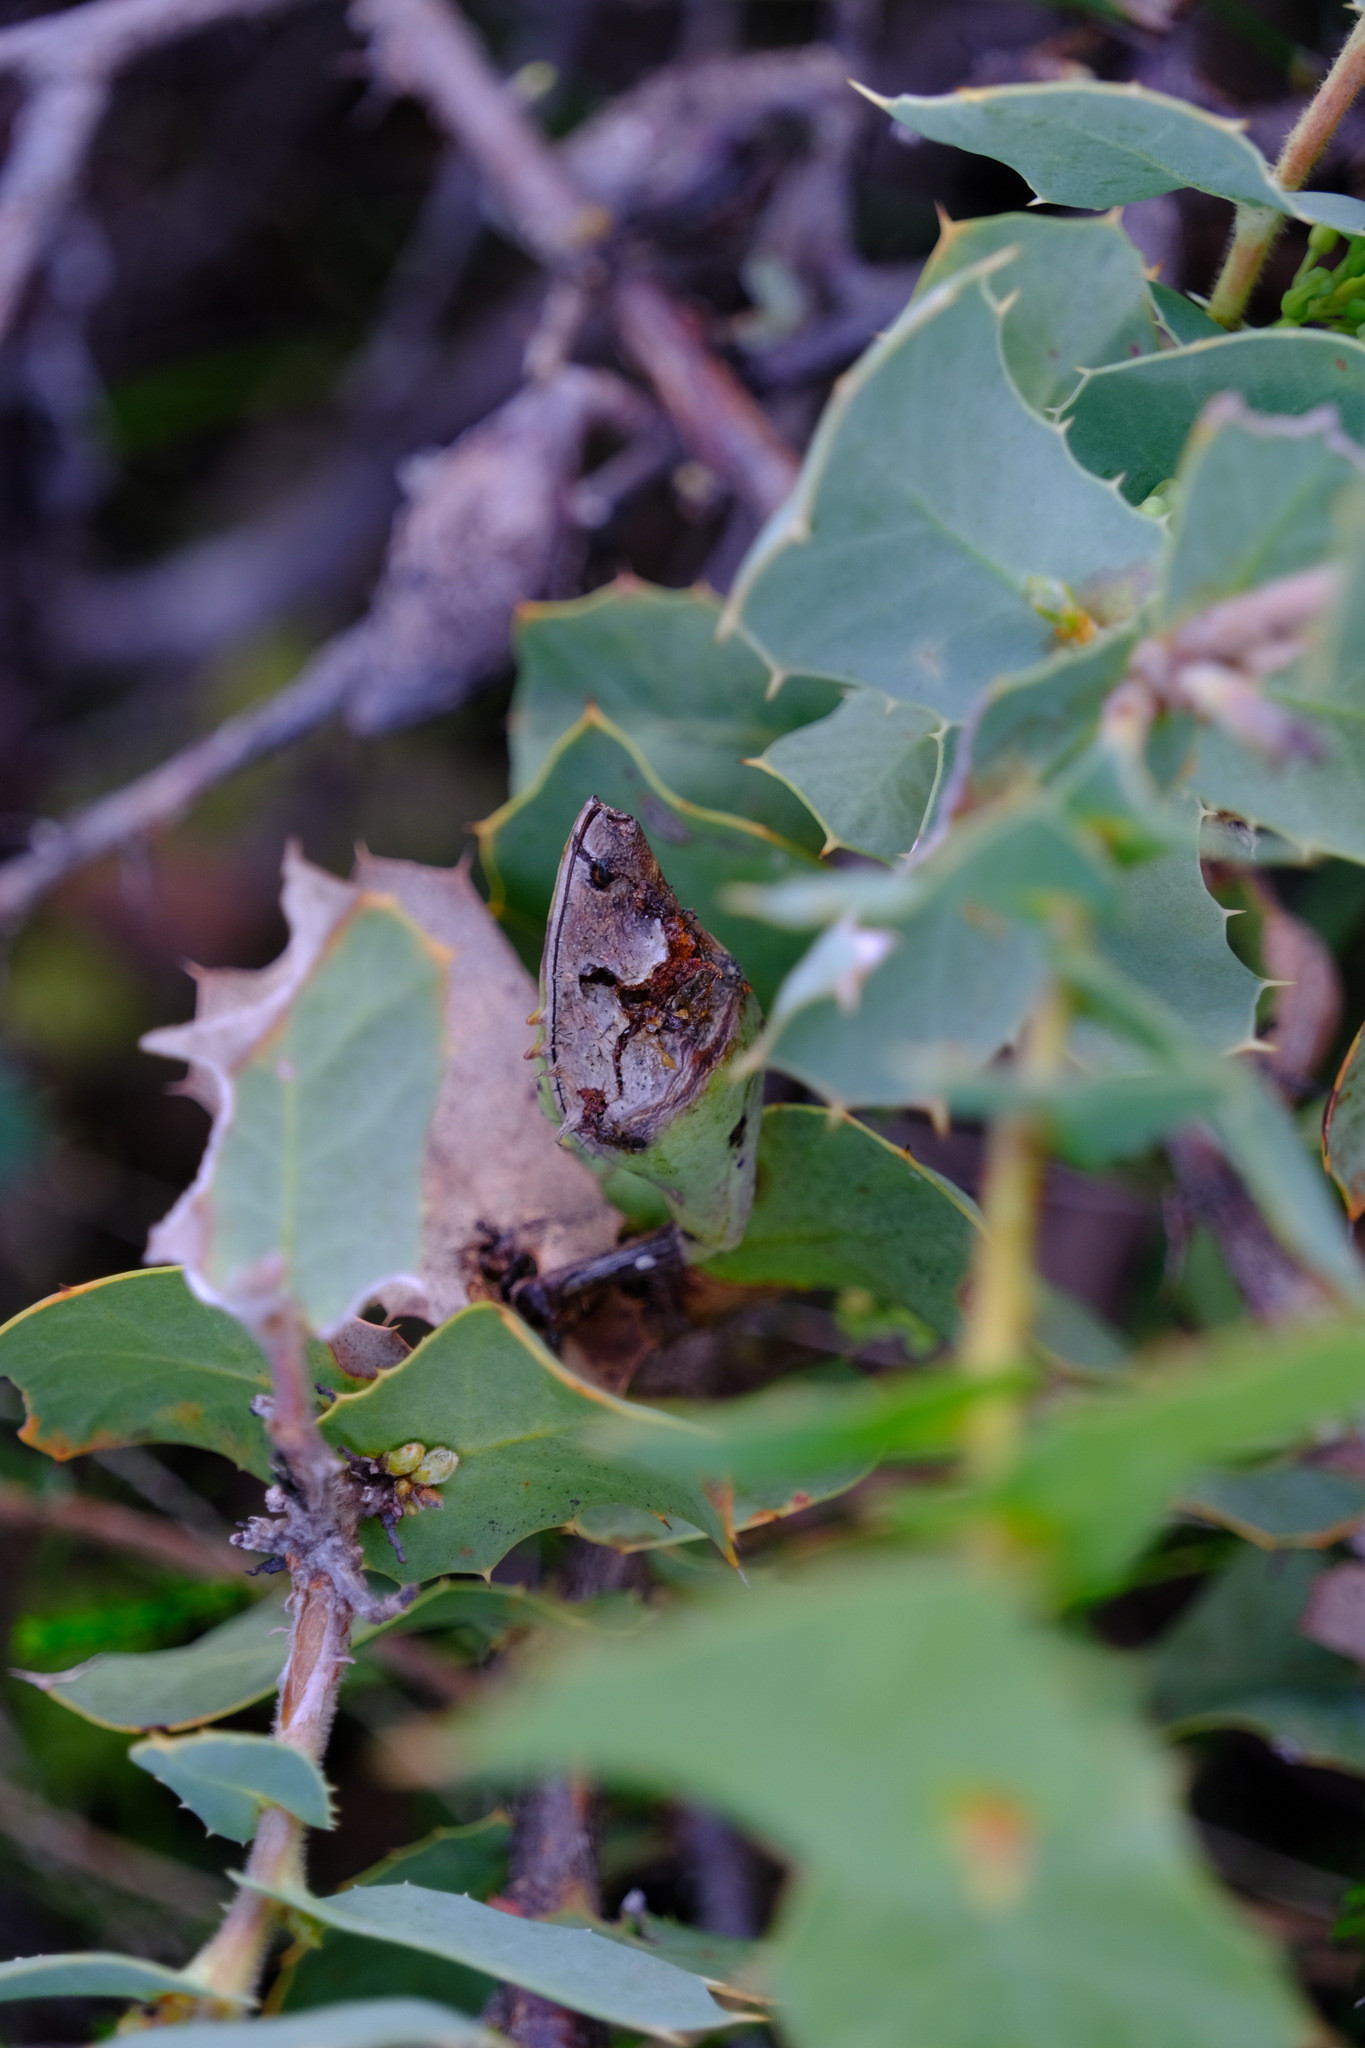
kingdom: Plantae
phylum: Tracheophyta
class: Magnoliopsida
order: Proteales
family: Proteaceae
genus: Hakea
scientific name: Hakea prostrata
